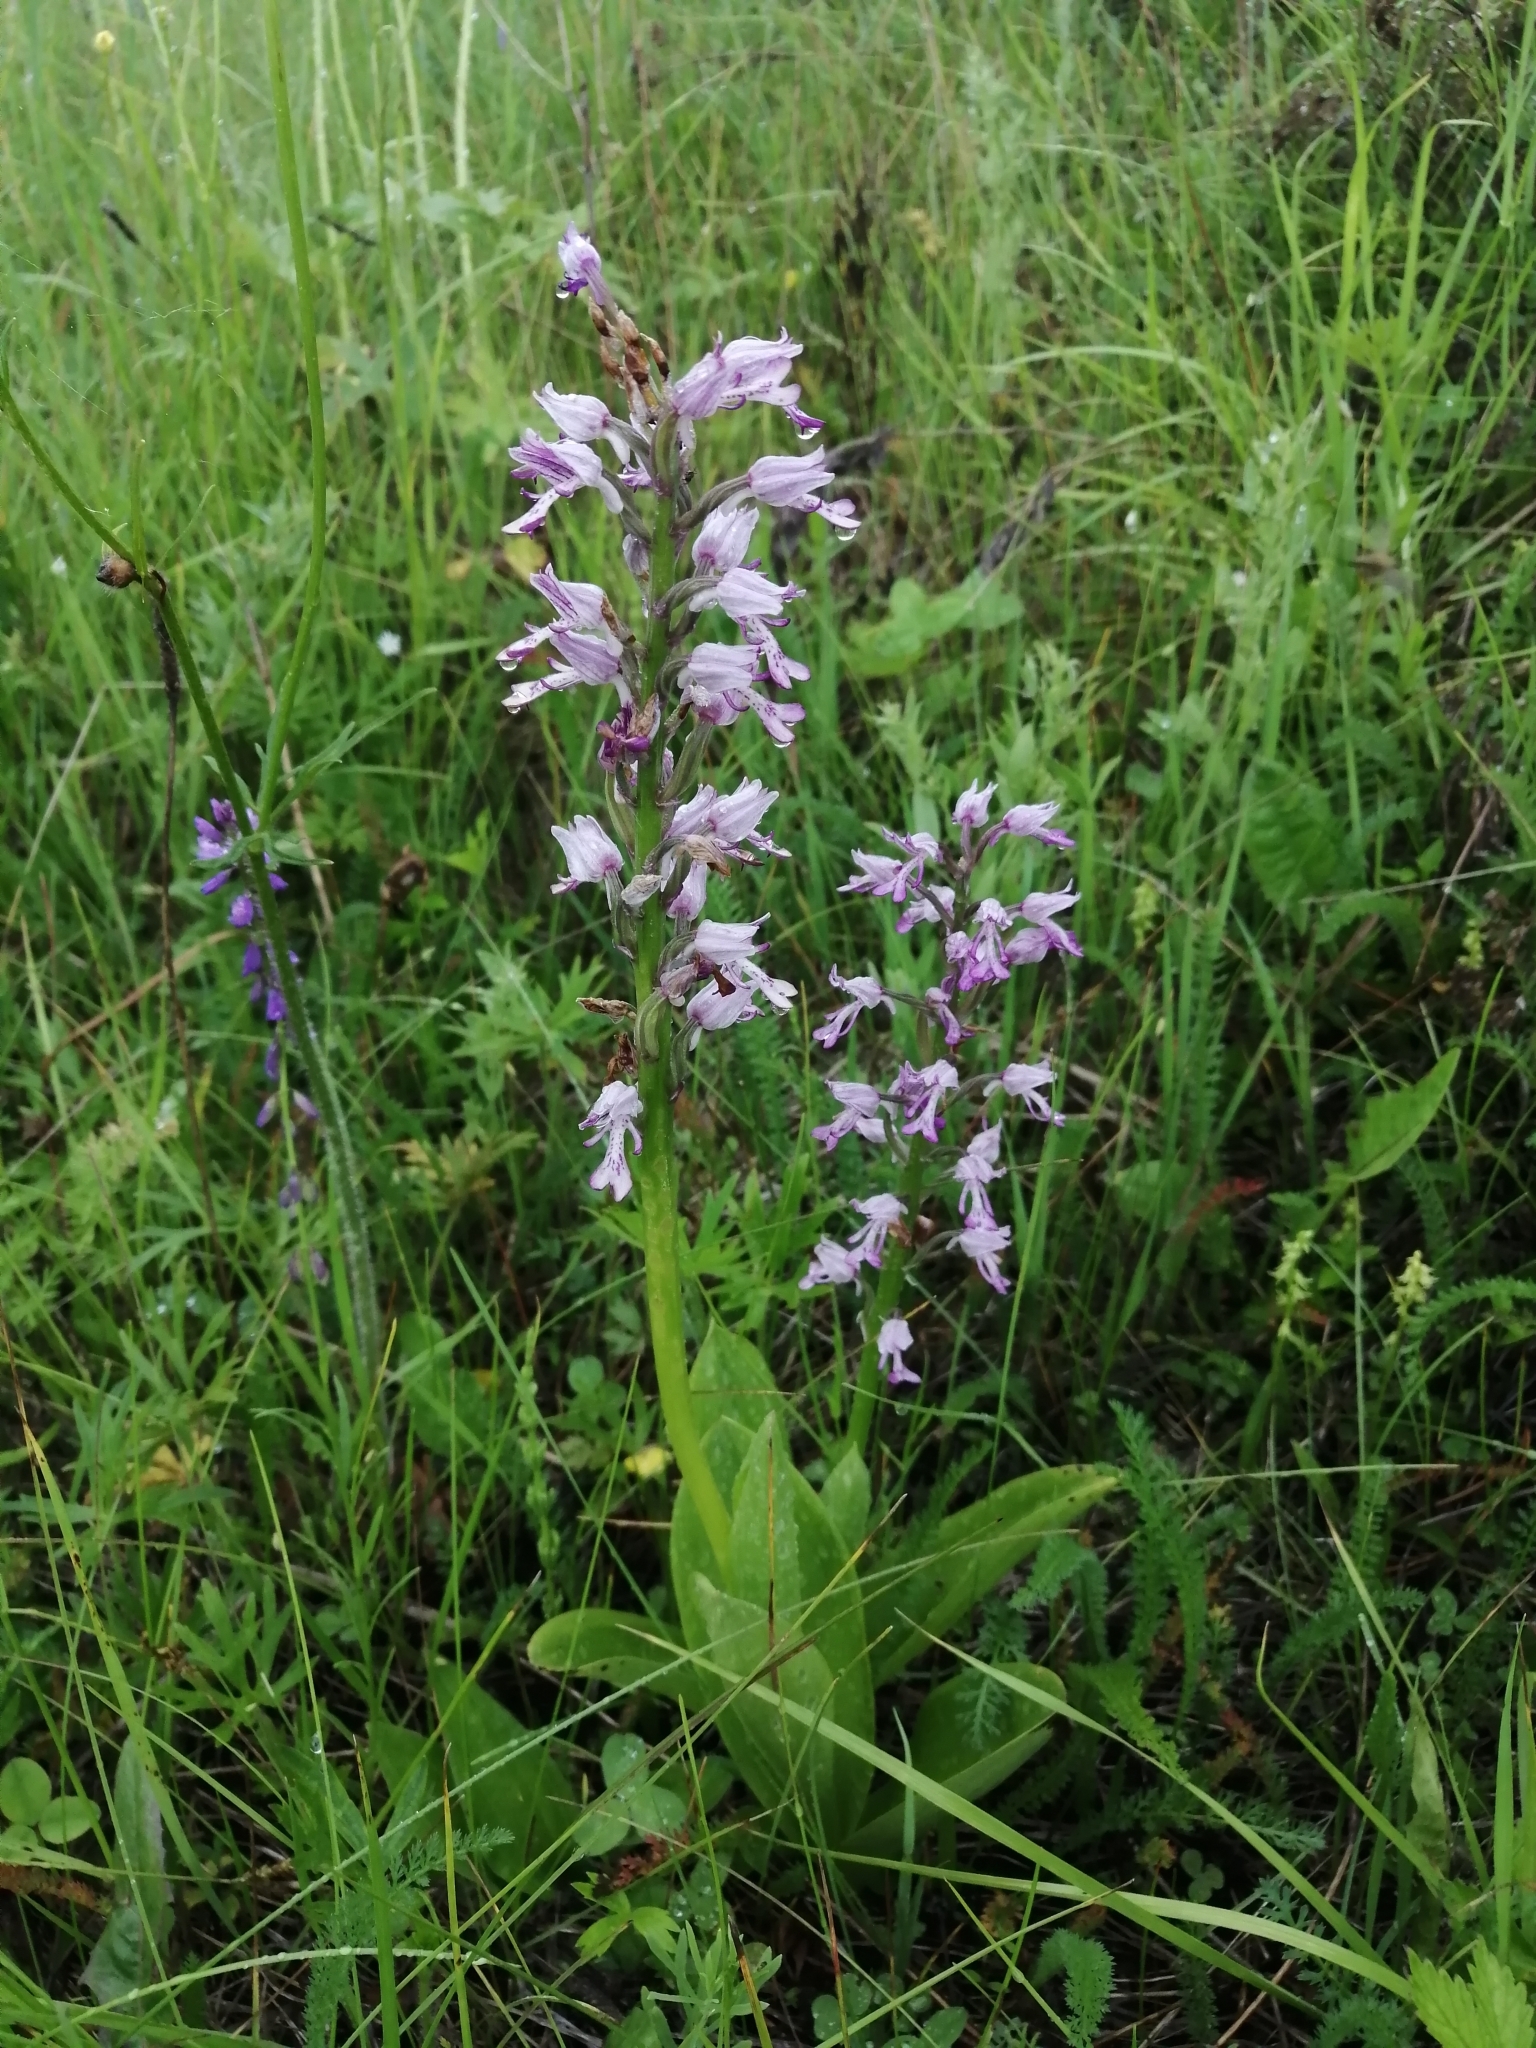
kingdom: Plantae
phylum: Tracheophyta
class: Liliopsida
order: Asparagales
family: Orchidaceae
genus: Orchis
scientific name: Orchis militaris
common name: Military orchid
